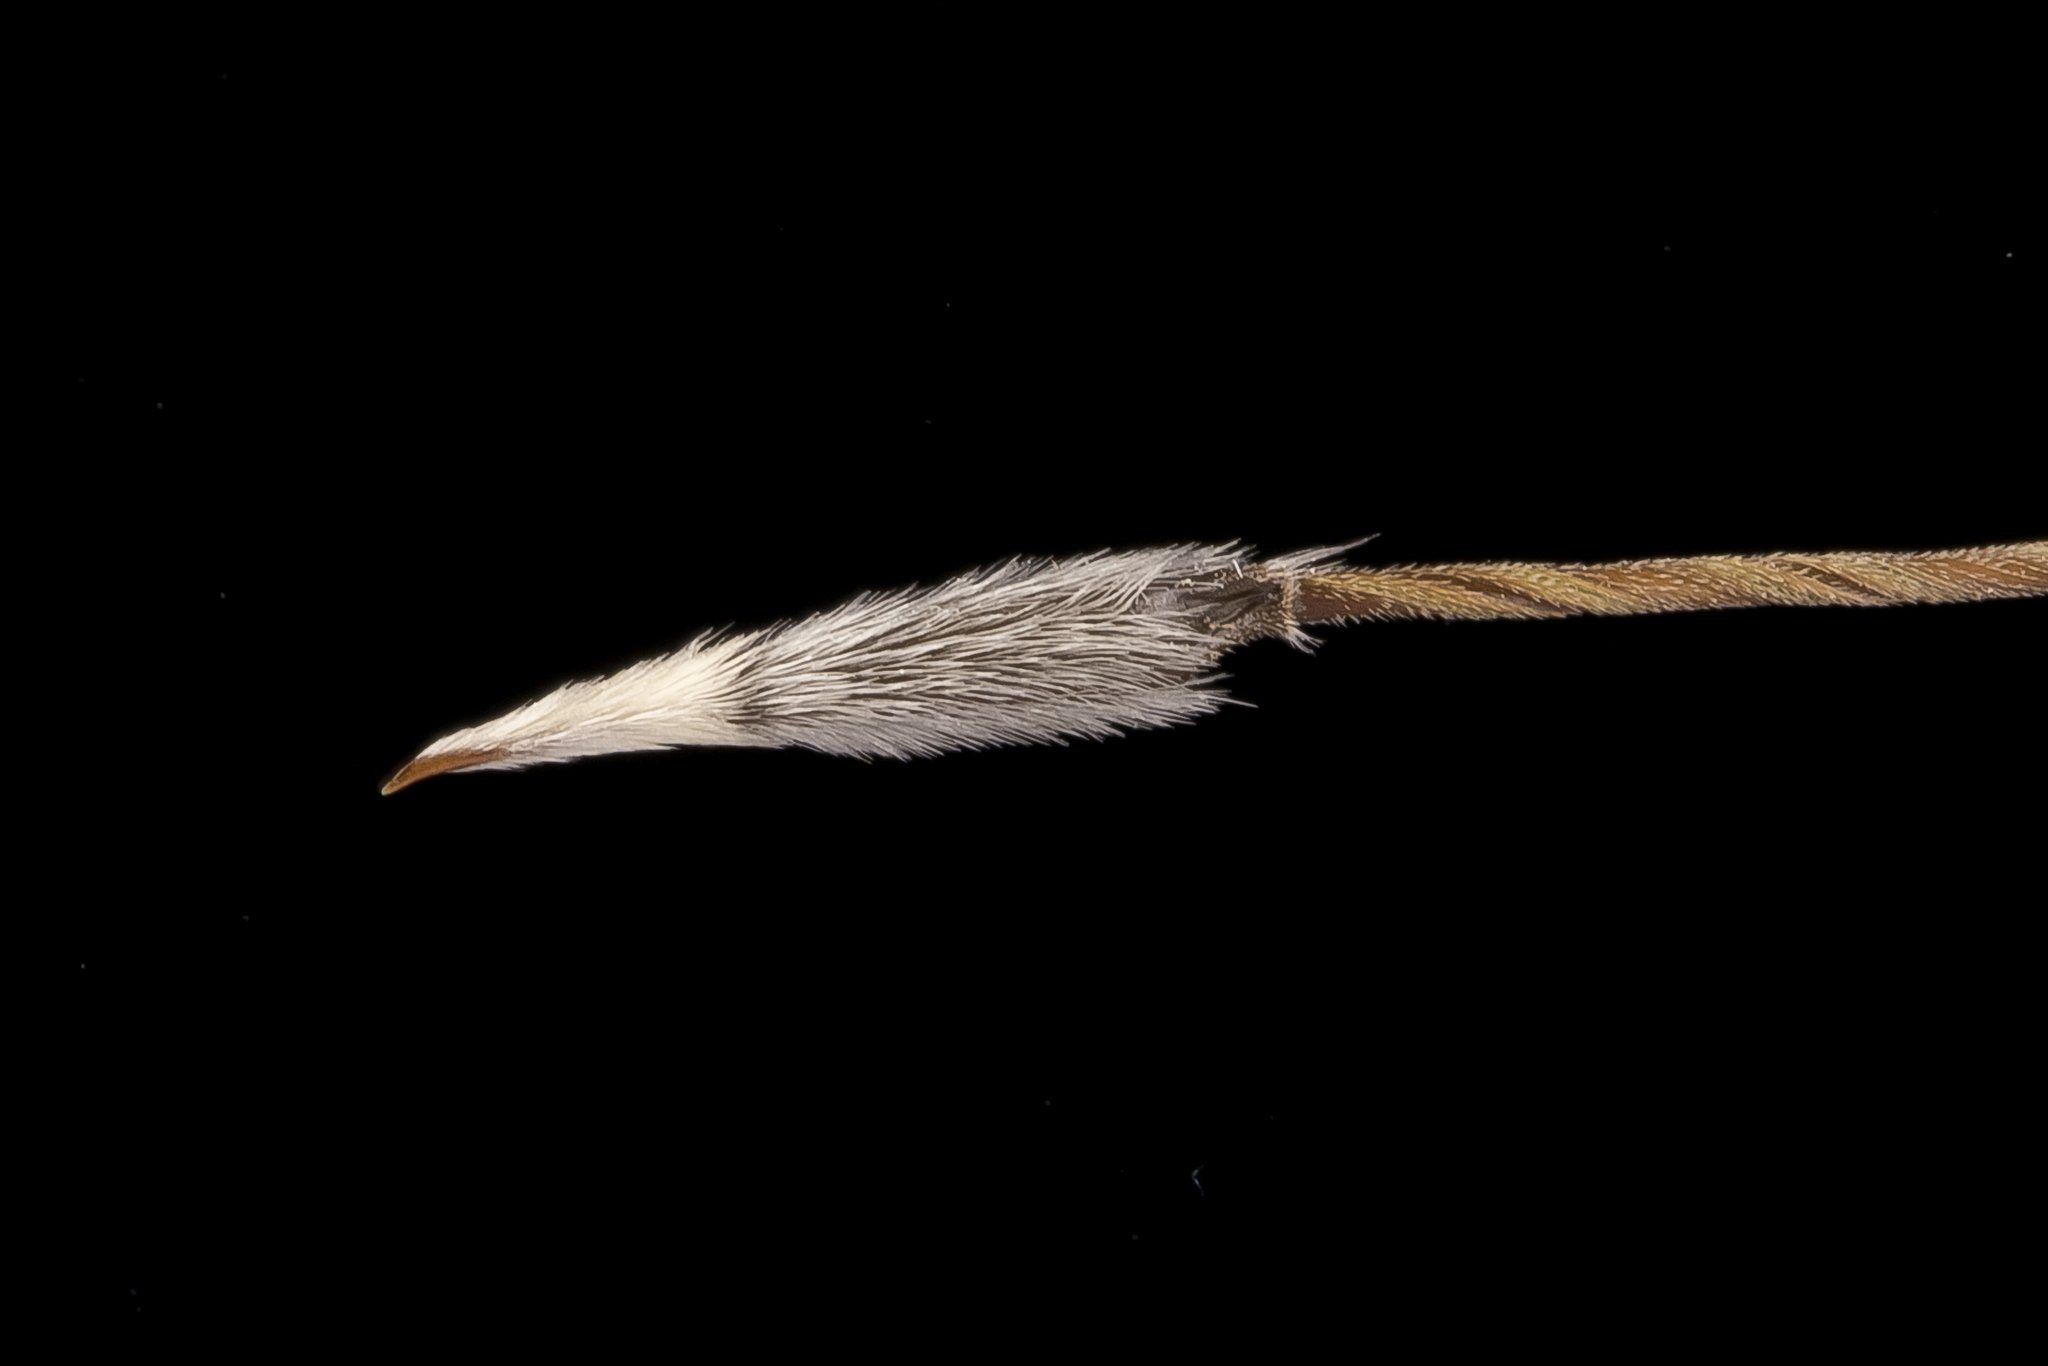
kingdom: Plantae
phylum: Tracheophyta
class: Liliopsida
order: Poales
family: Poaceae
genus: Austrostipa
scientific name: Austrostipa setacea
